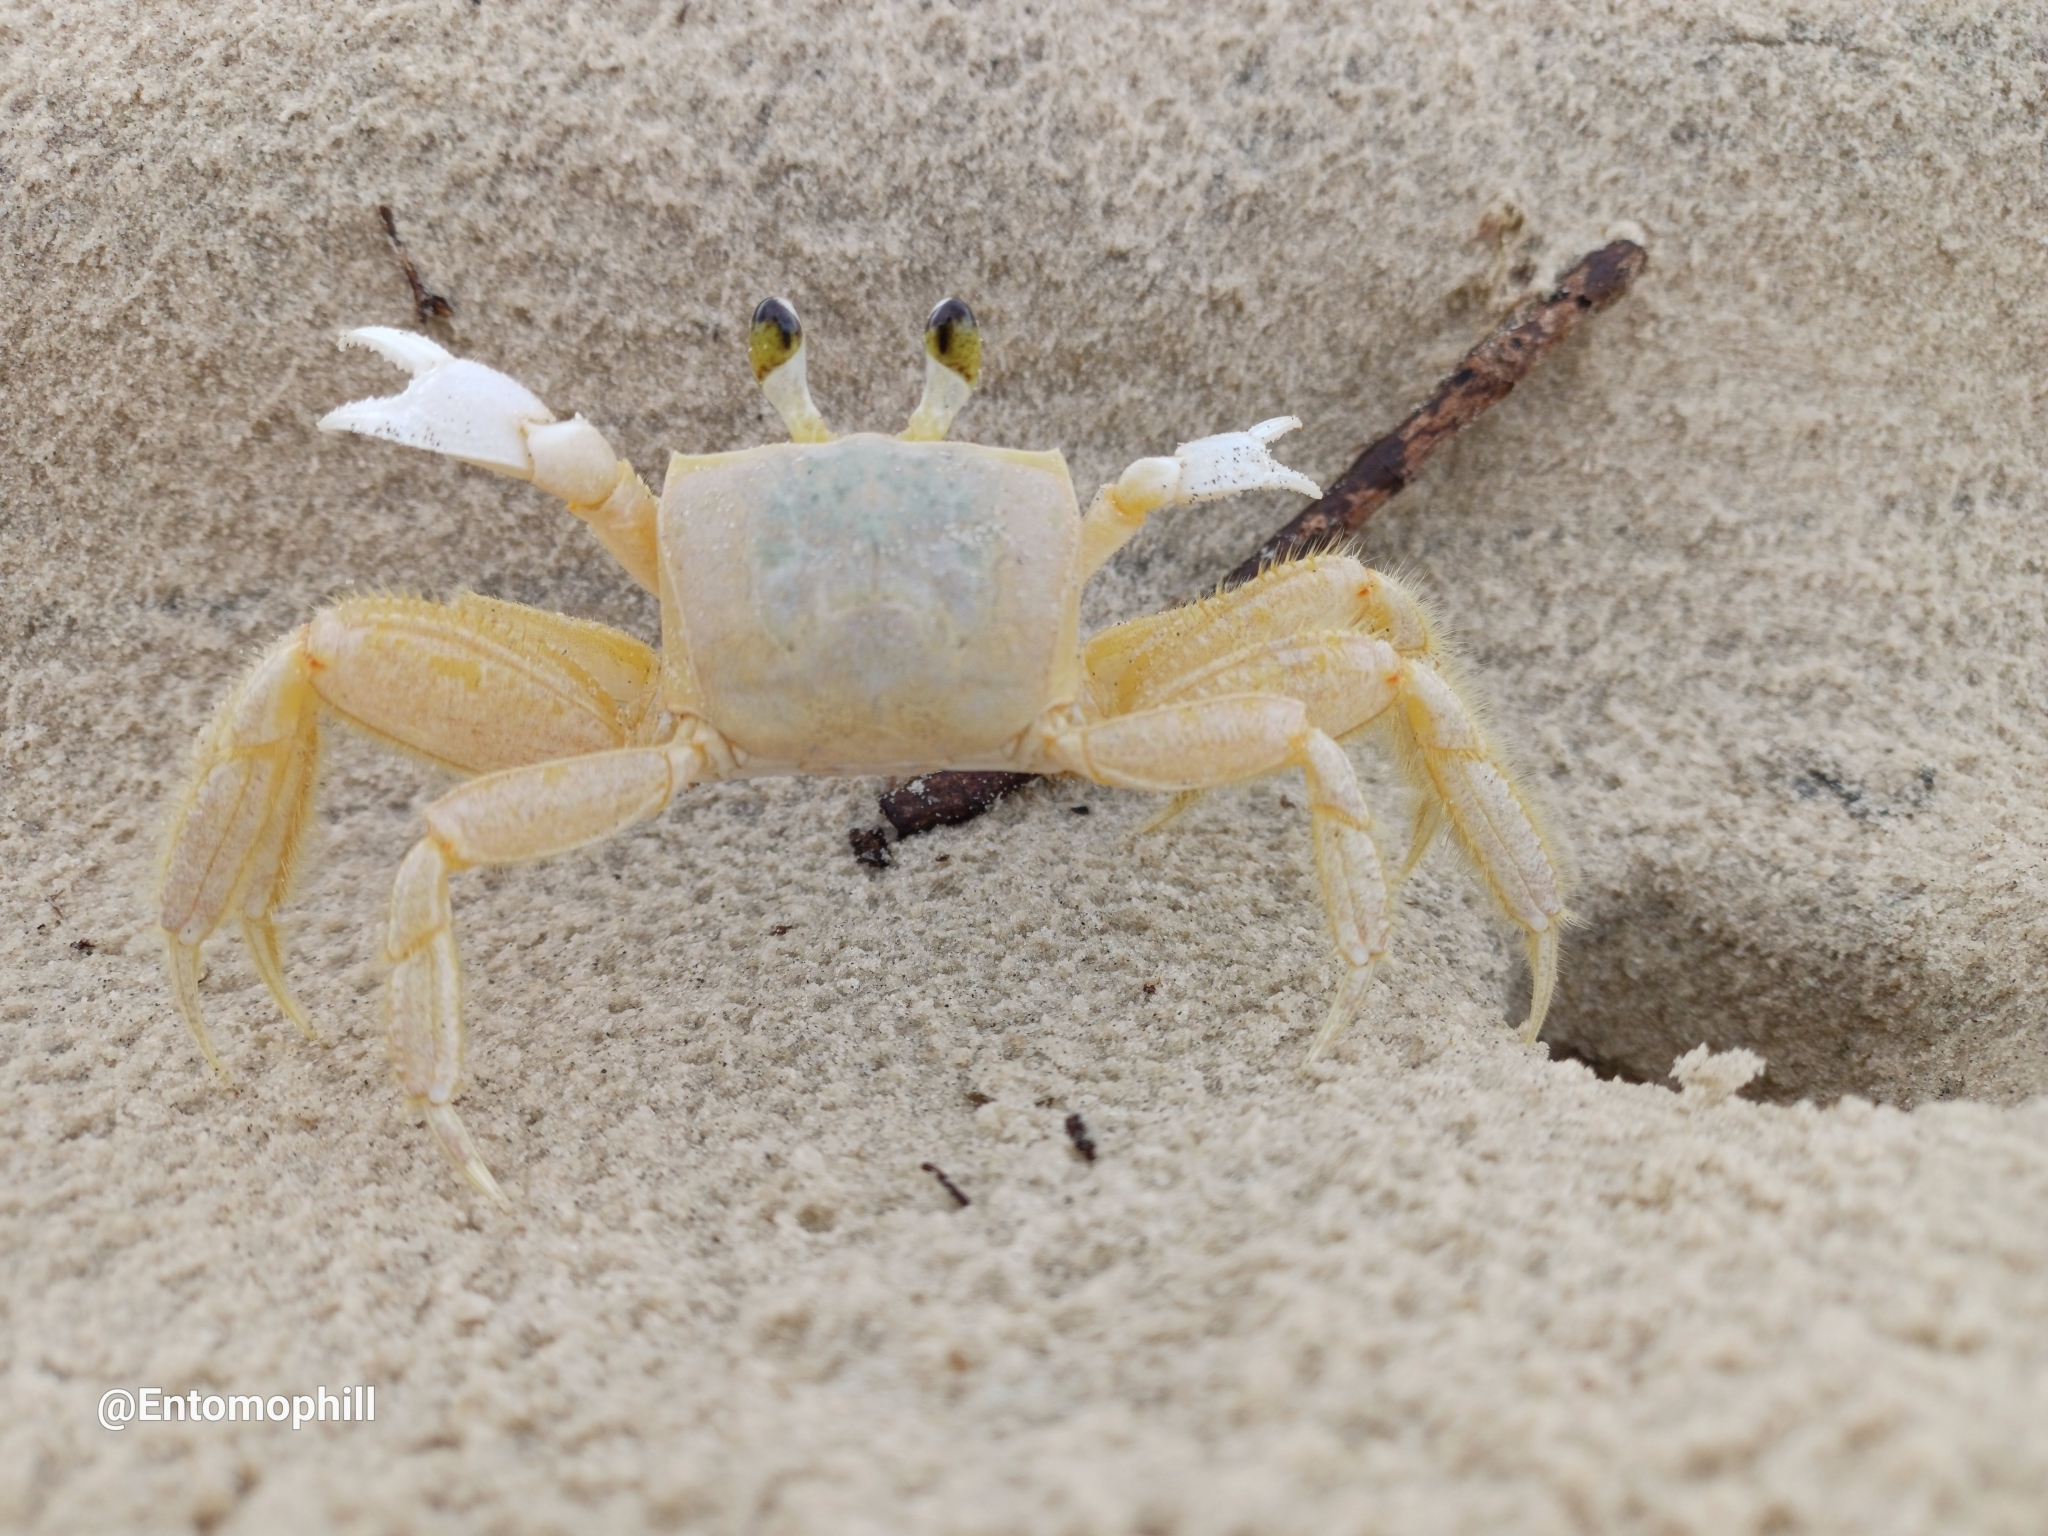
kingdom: Animalia
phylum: Arthropoda
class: Malacostraca
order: Decapoda
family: Ocypodidae
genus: Ocypode
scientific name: Ocypode quadrata
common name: Ghost crab
